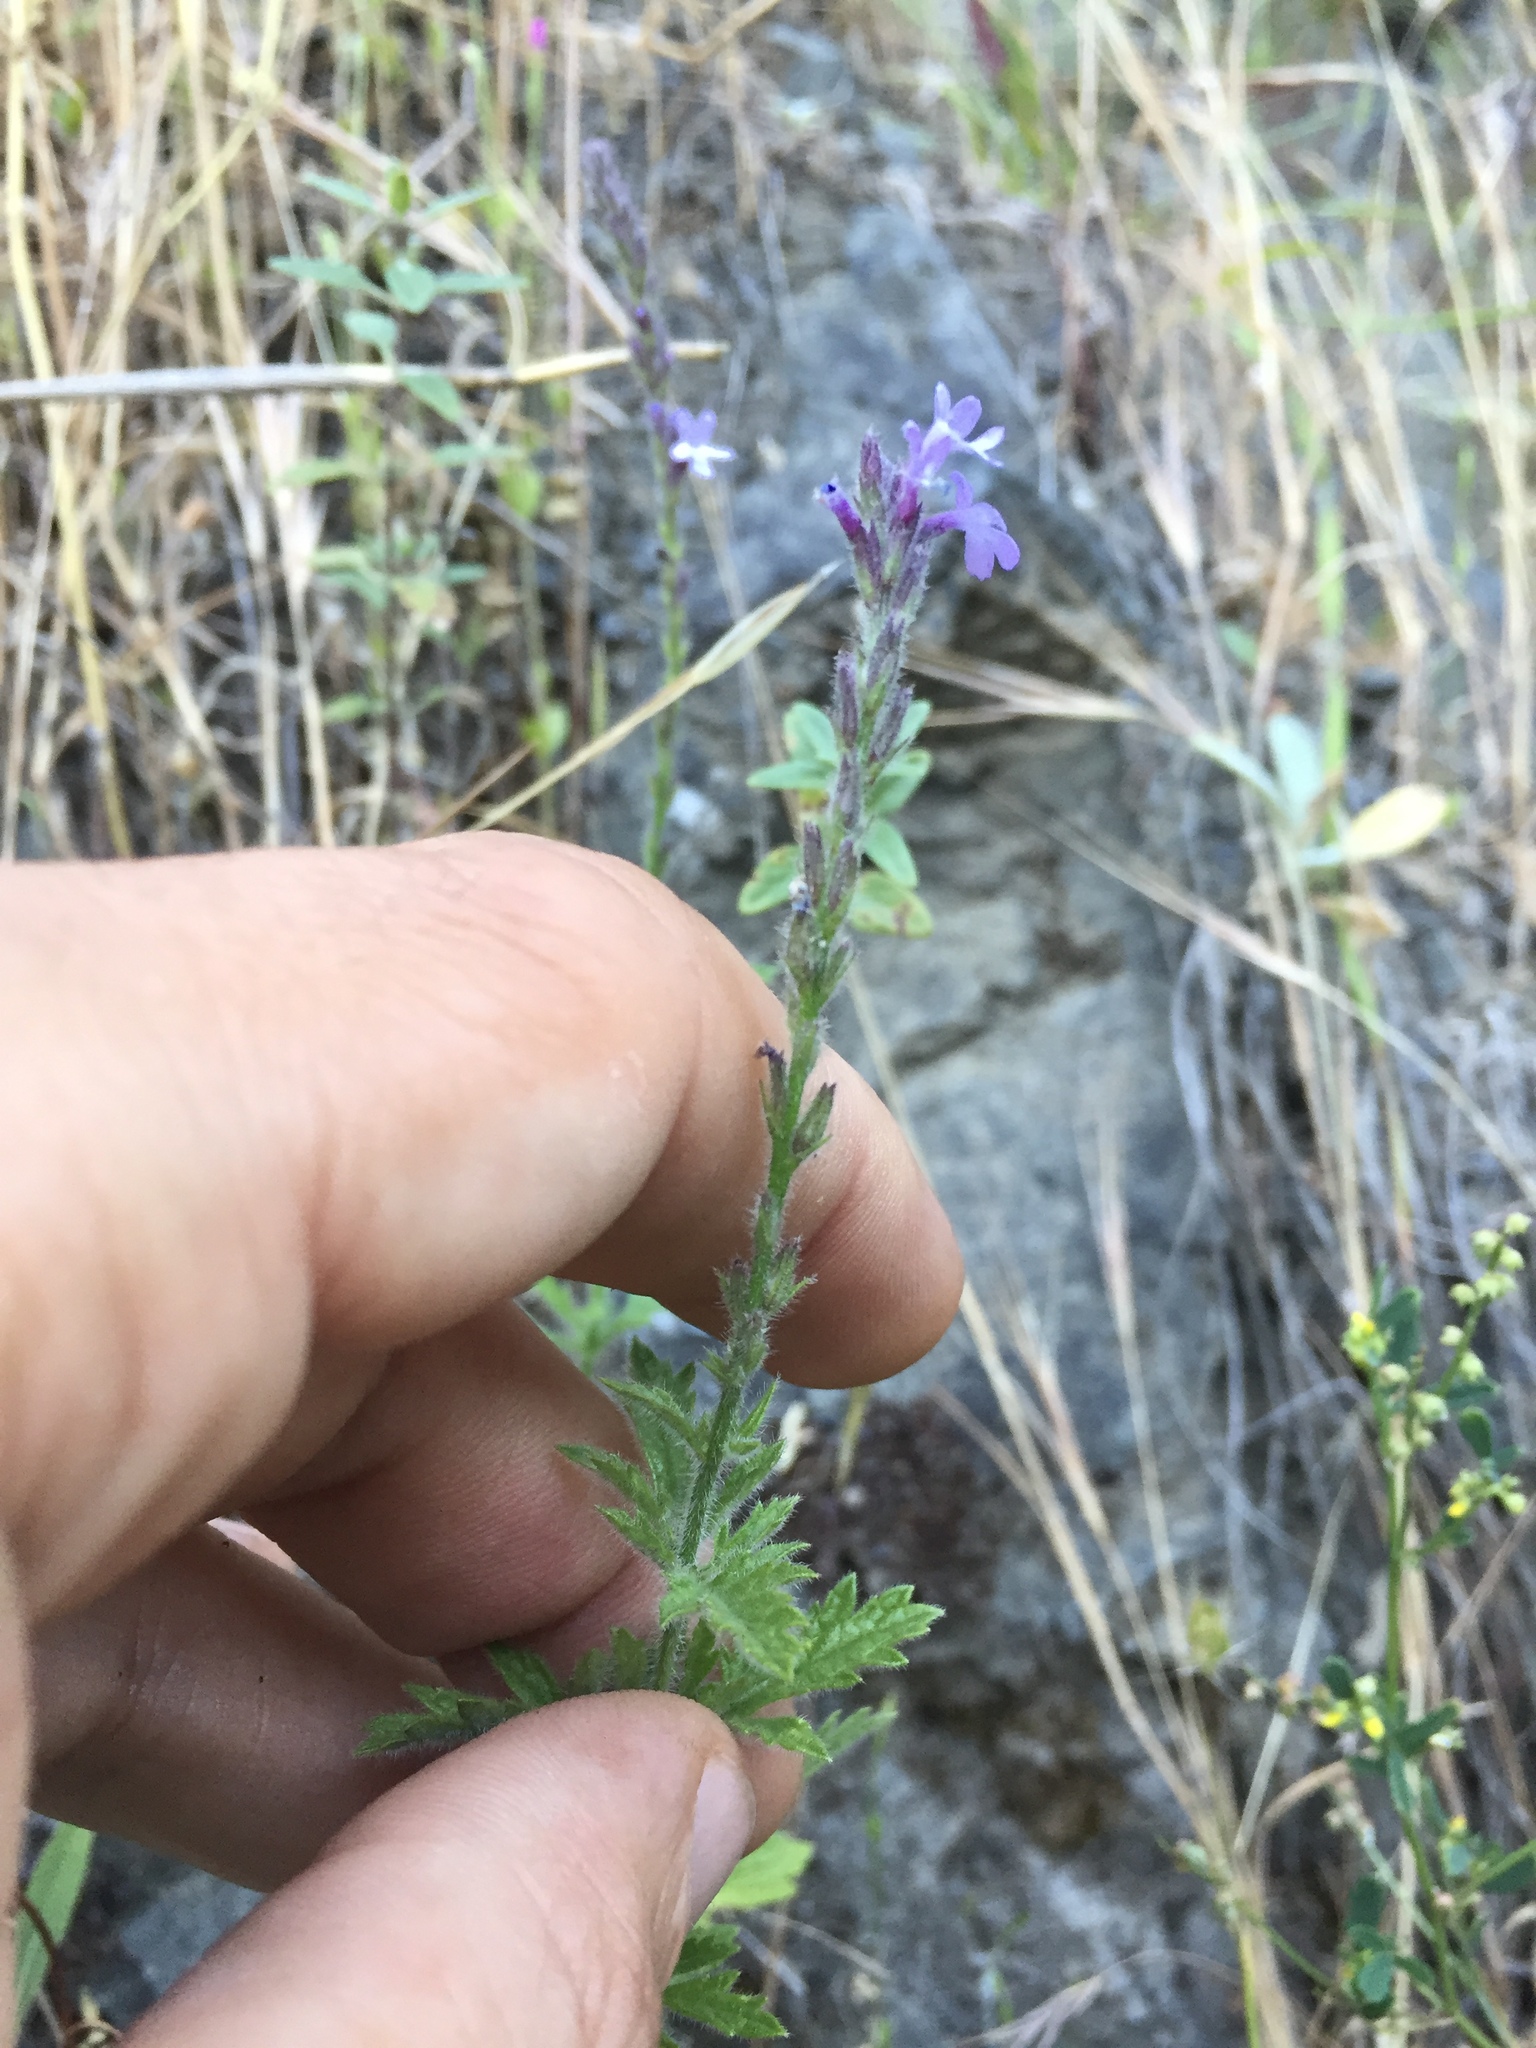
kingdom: Plantae
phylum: Tracheophyta
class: Magnoliopsida
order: Lamiales
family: Verbenaceae
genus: Verbena
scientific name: Verbena lasiostachys
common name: Vervain
